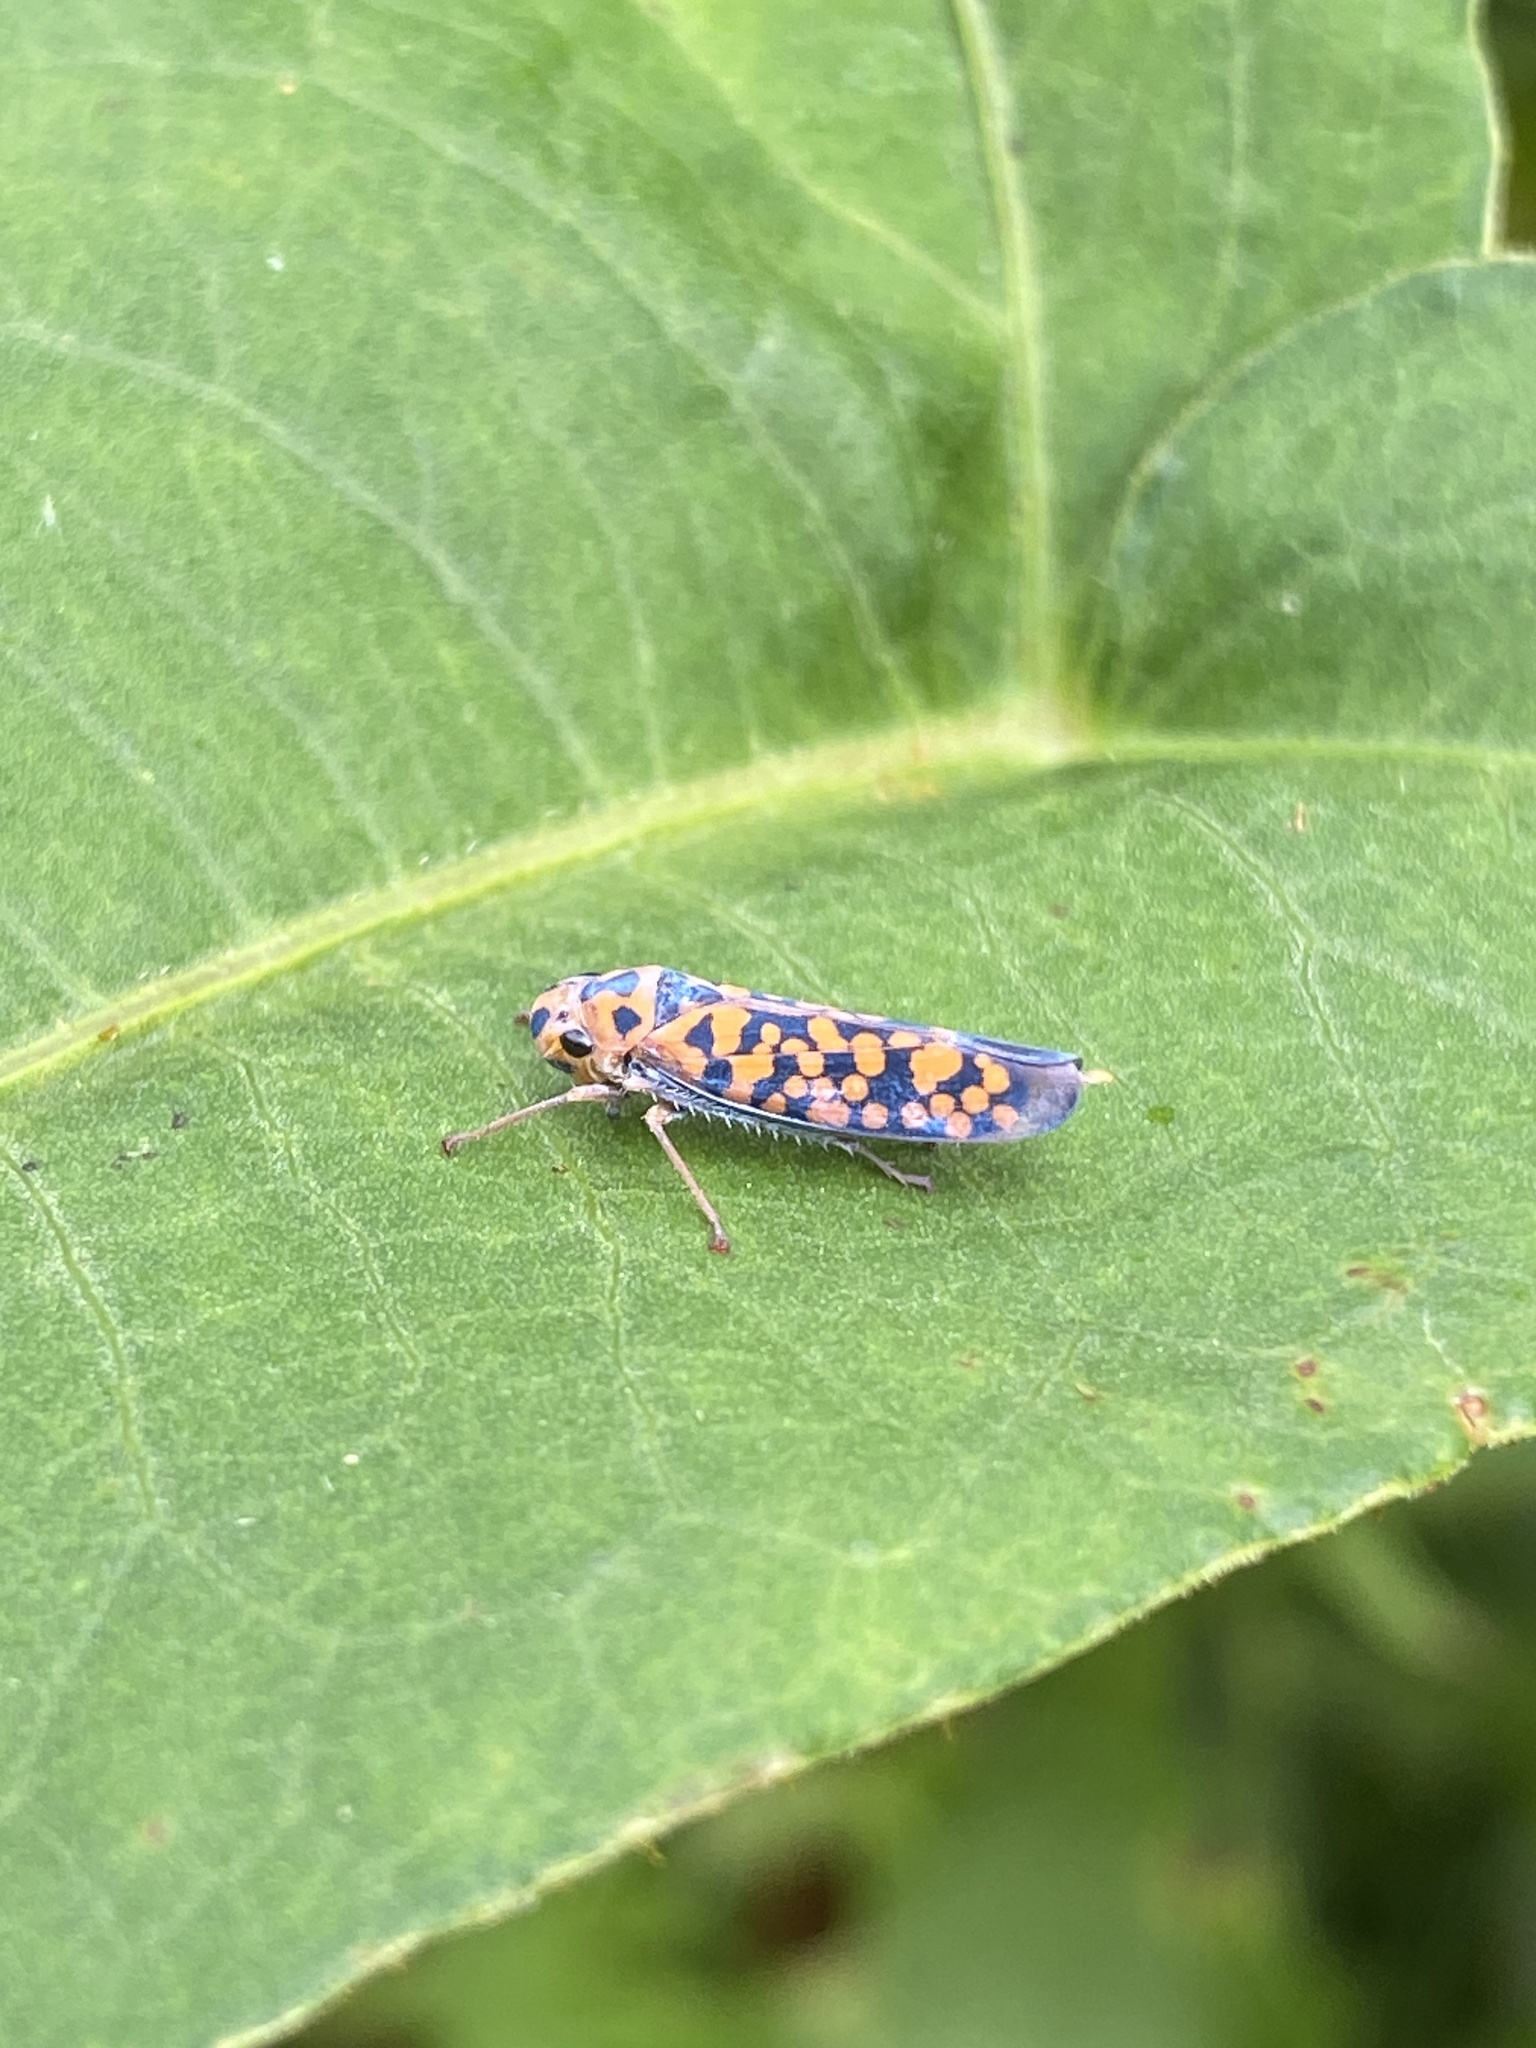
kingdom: Animalia
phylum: Arthropoda
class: Insecta
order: Hemiptera
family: Cicadellidae
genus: Pawiloma
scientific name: Pawiloma victima
